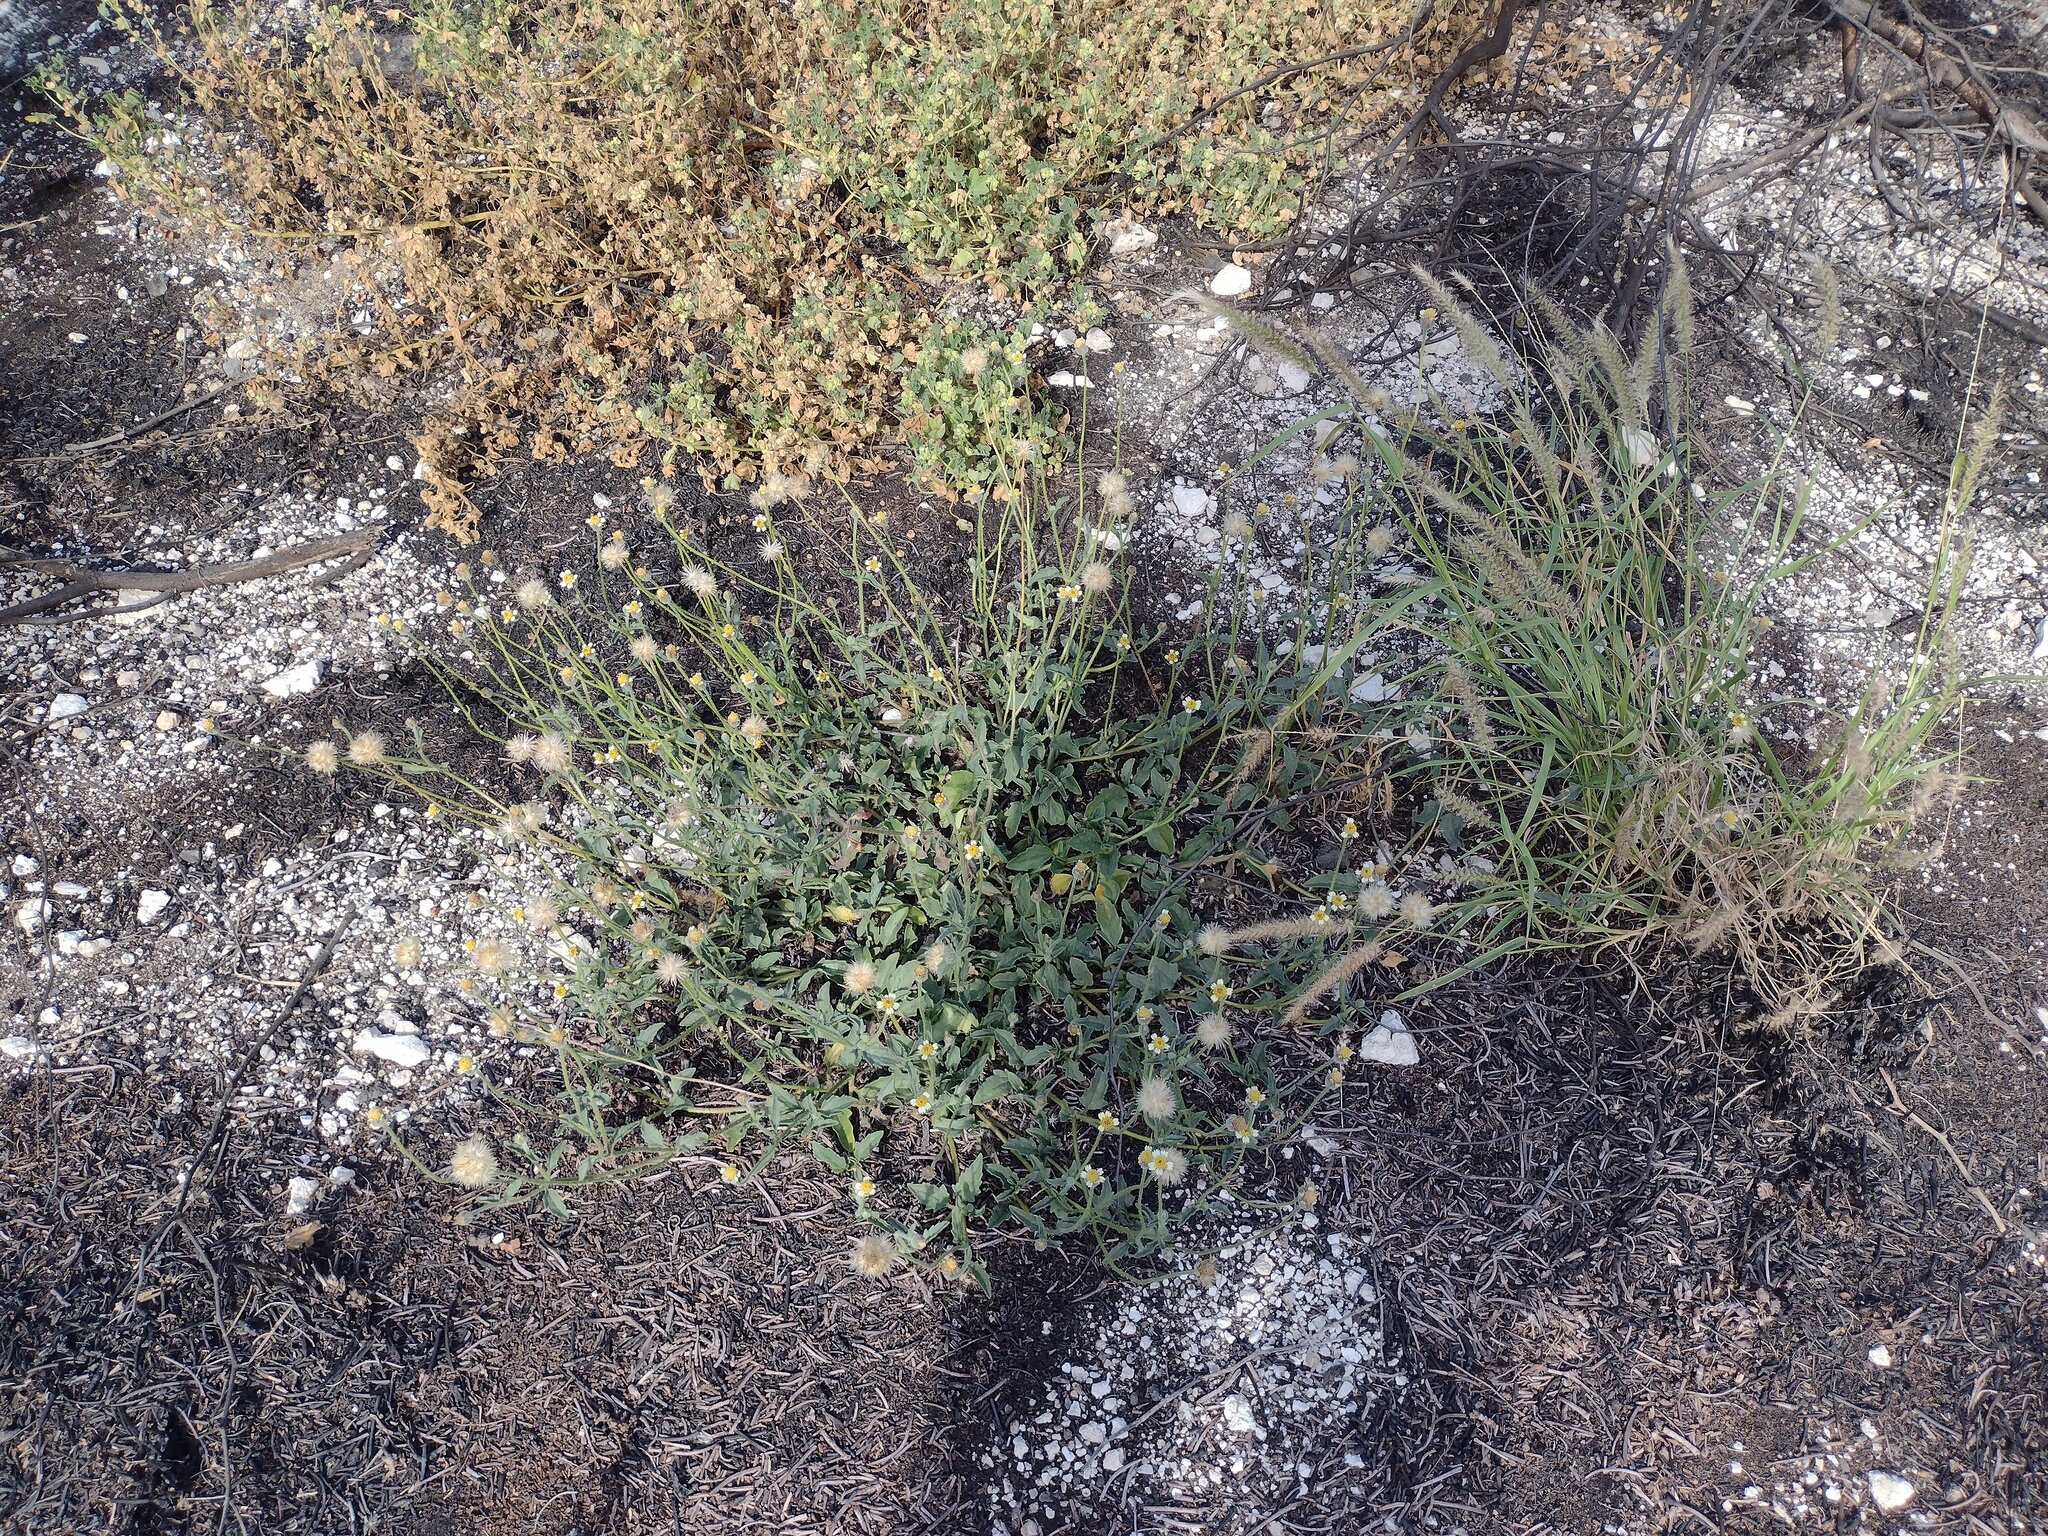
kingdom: Plantae
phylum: Tracheophyta
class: Magnoliopsida
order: Asterales
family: Asteraceae
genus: Tridax
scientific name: Tridax procumbens
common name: Coatbuttons
